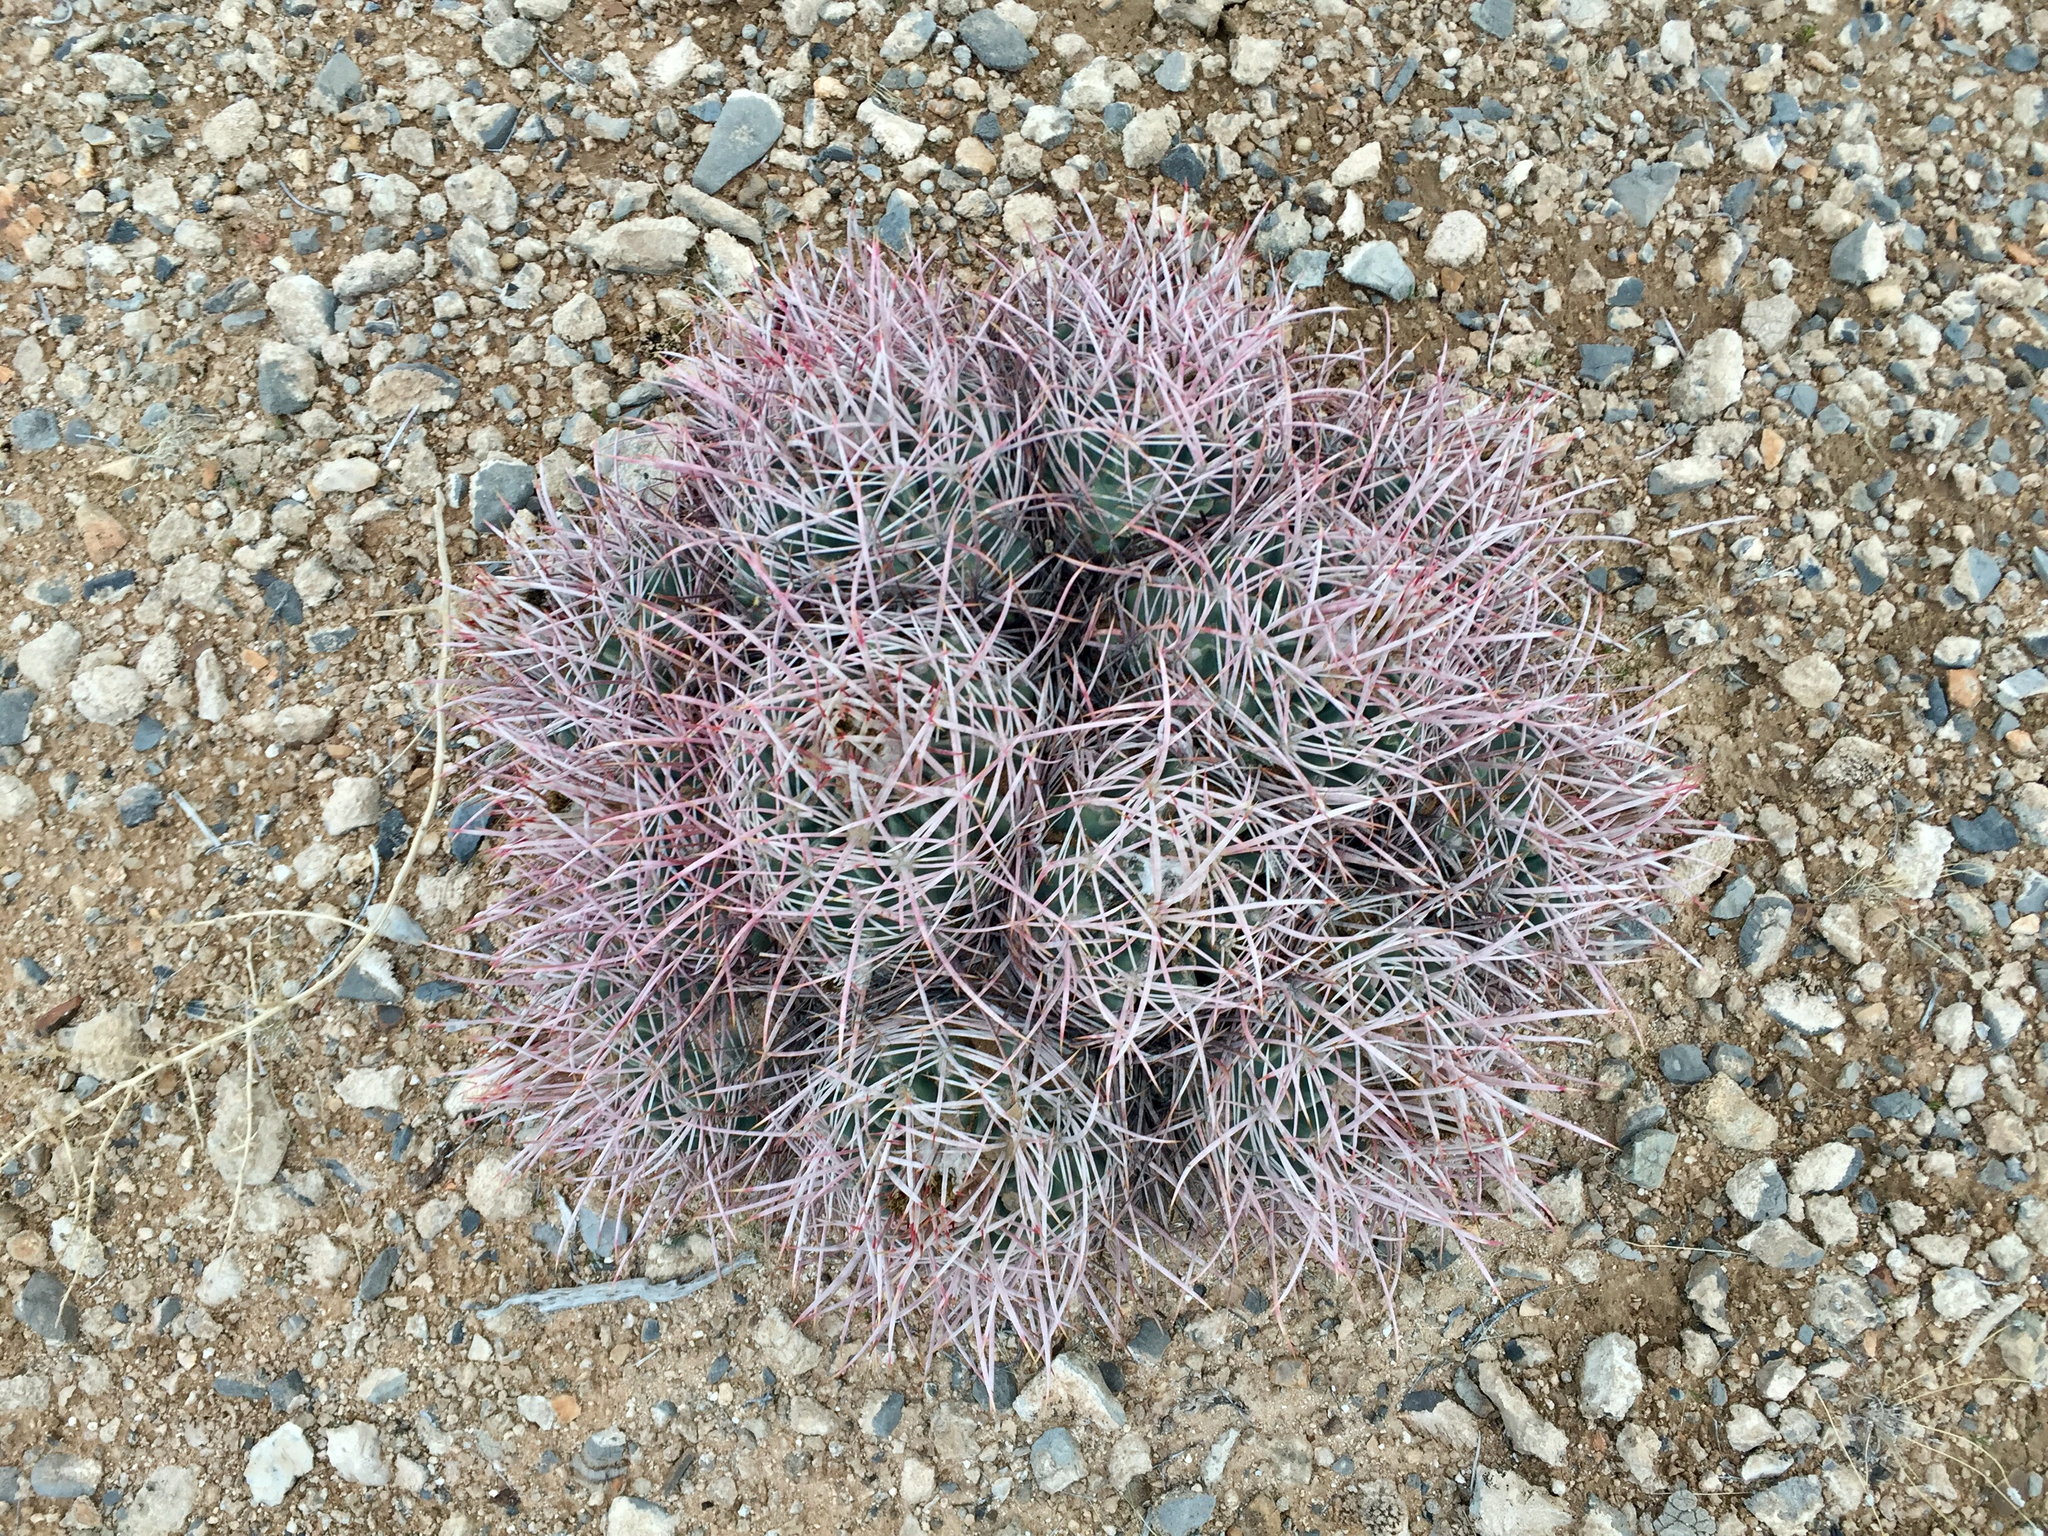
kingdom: Plantae
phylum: Tracheophyta
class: Magnoliopsida
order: Caryophyllales
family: Cactaceae
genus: Echinocactus
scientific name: Echinocactus polycephalus
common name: Cottontop cactus
